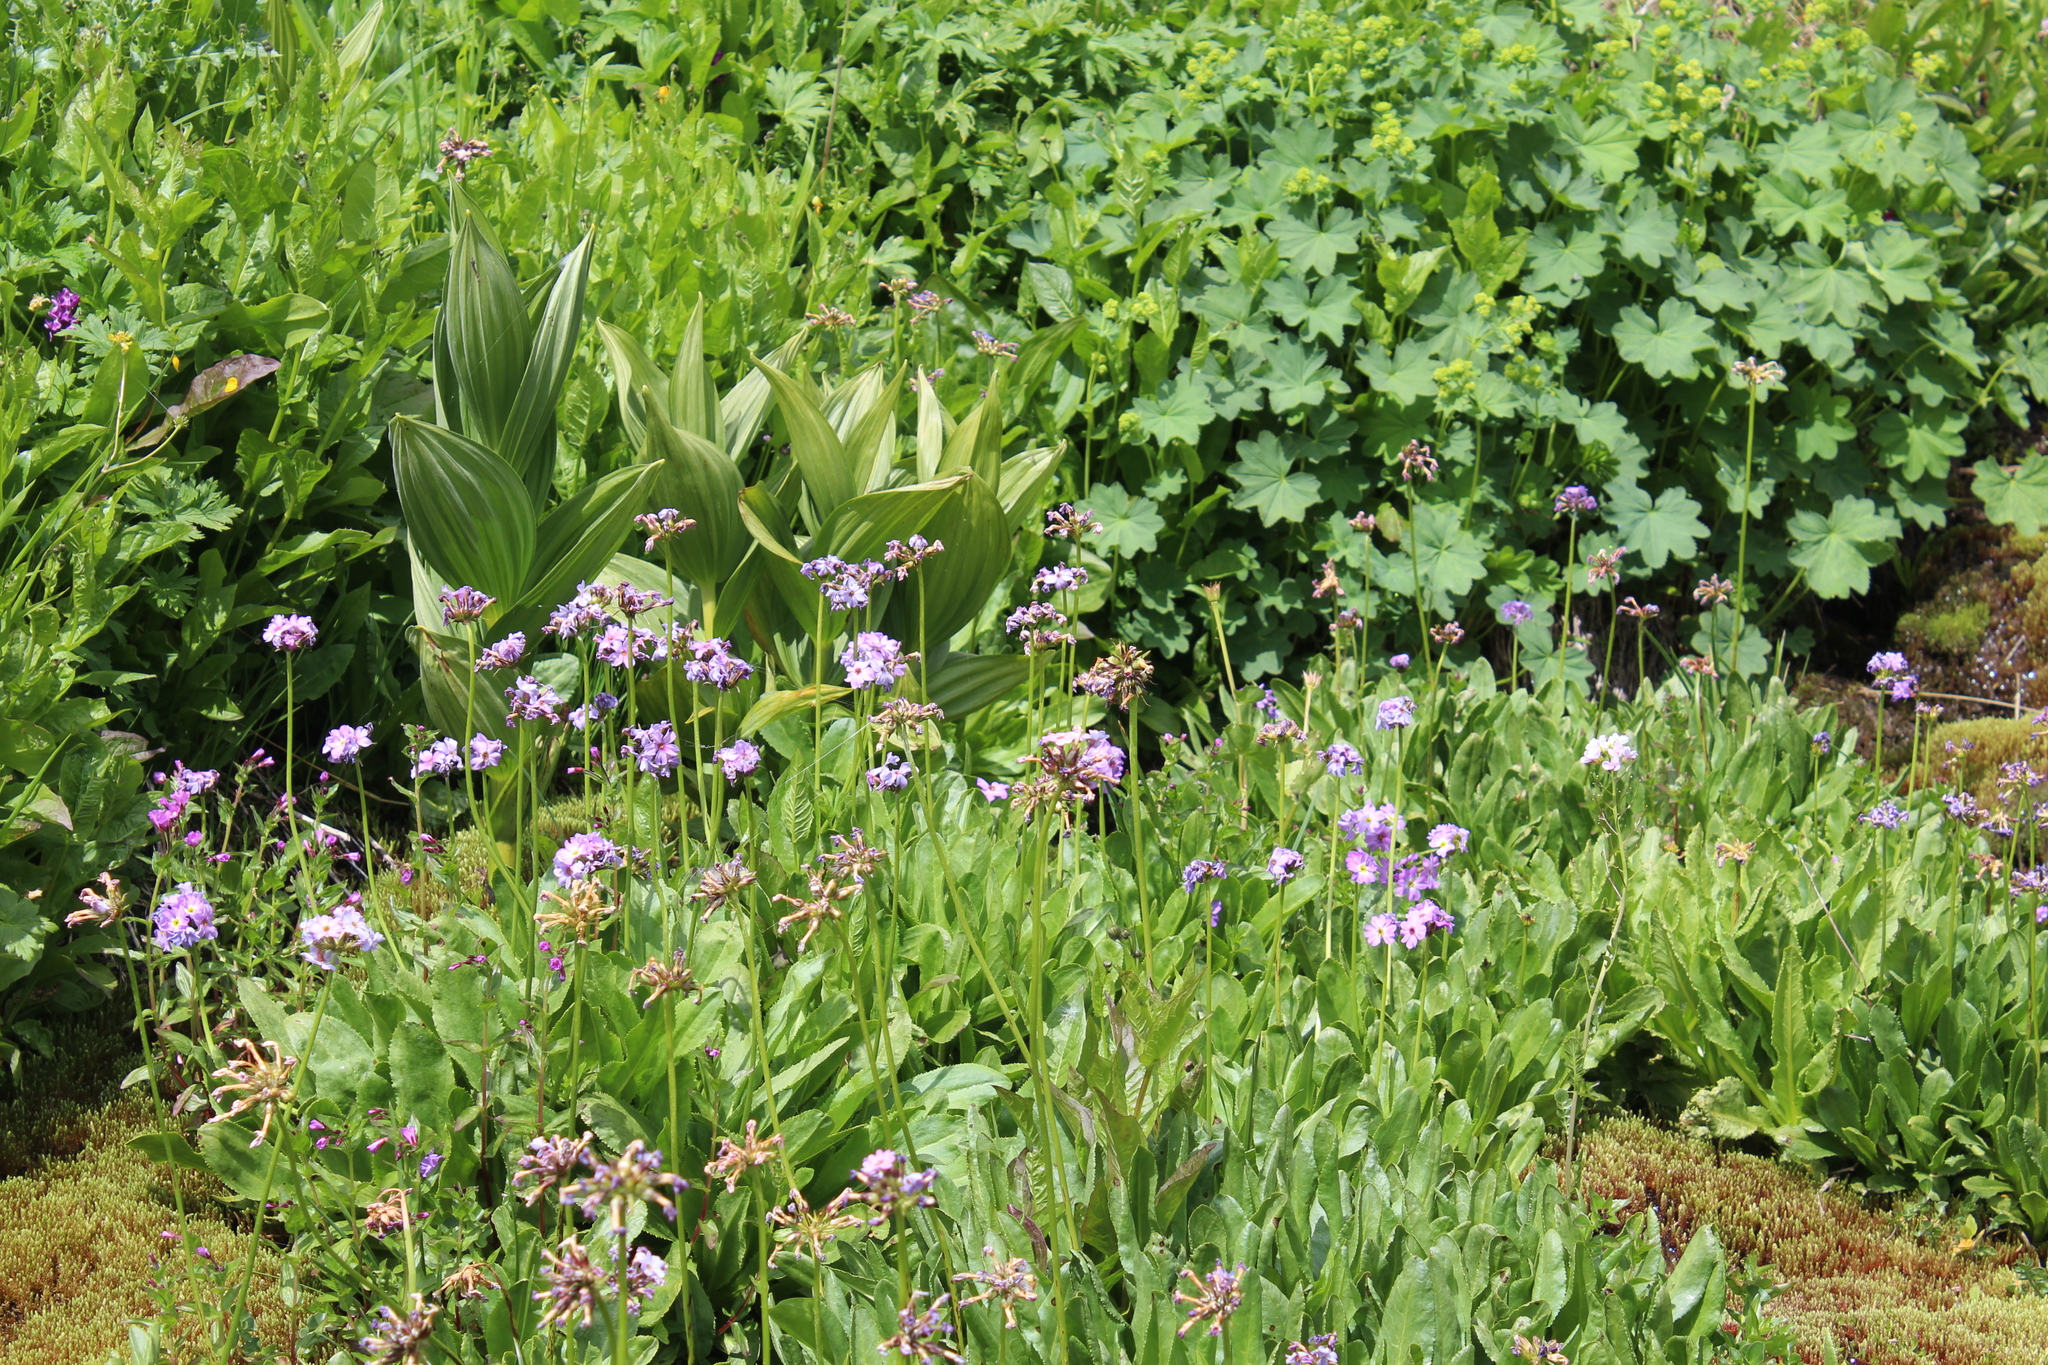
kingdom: Plantae
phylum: Tracheophyta
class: Magnoliopsida
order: Ericales
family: Primulaceae
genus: Primula
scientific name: Primula auriculata
